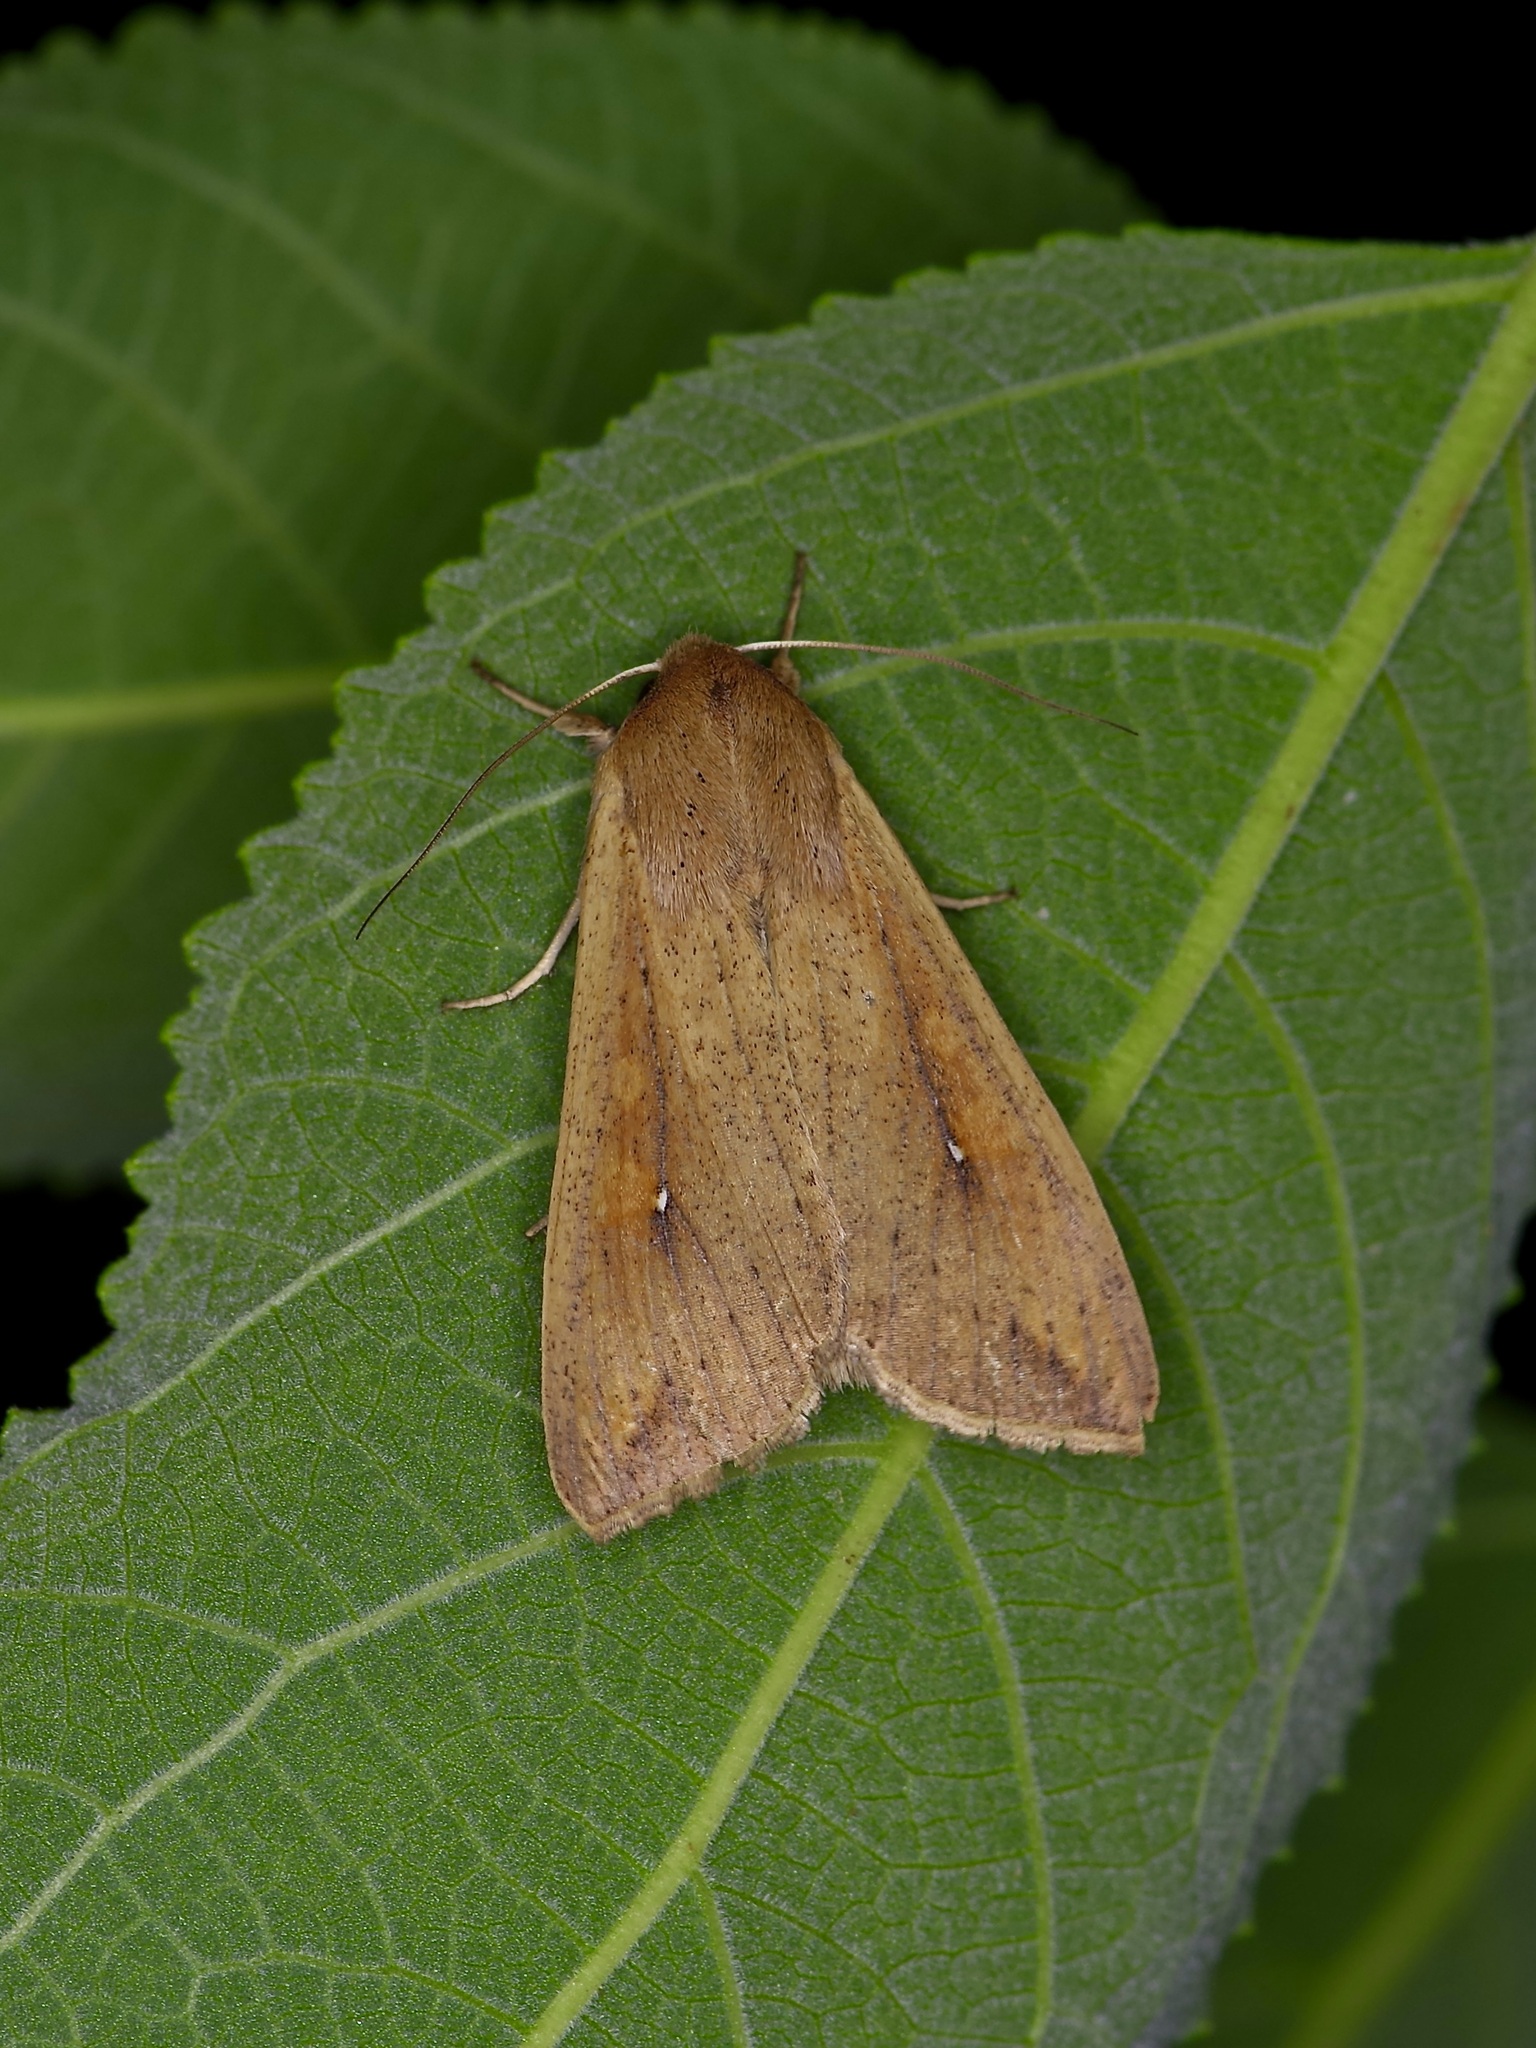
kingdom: Animalia
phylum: Arthropoda
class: Insecta
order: Lepidoptera
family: Noctuidae
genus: Mythimna
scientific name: Mythimna unipuncta
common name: White-speck
